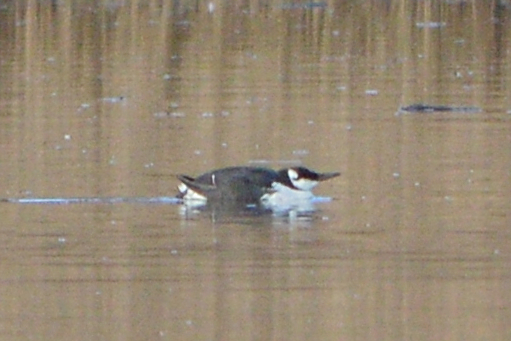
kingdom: Animalia
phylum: Chordata
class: Aves
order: Charadriiformes
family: Alcidae
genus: Uria
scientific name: Uria aalge
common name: Common murre
